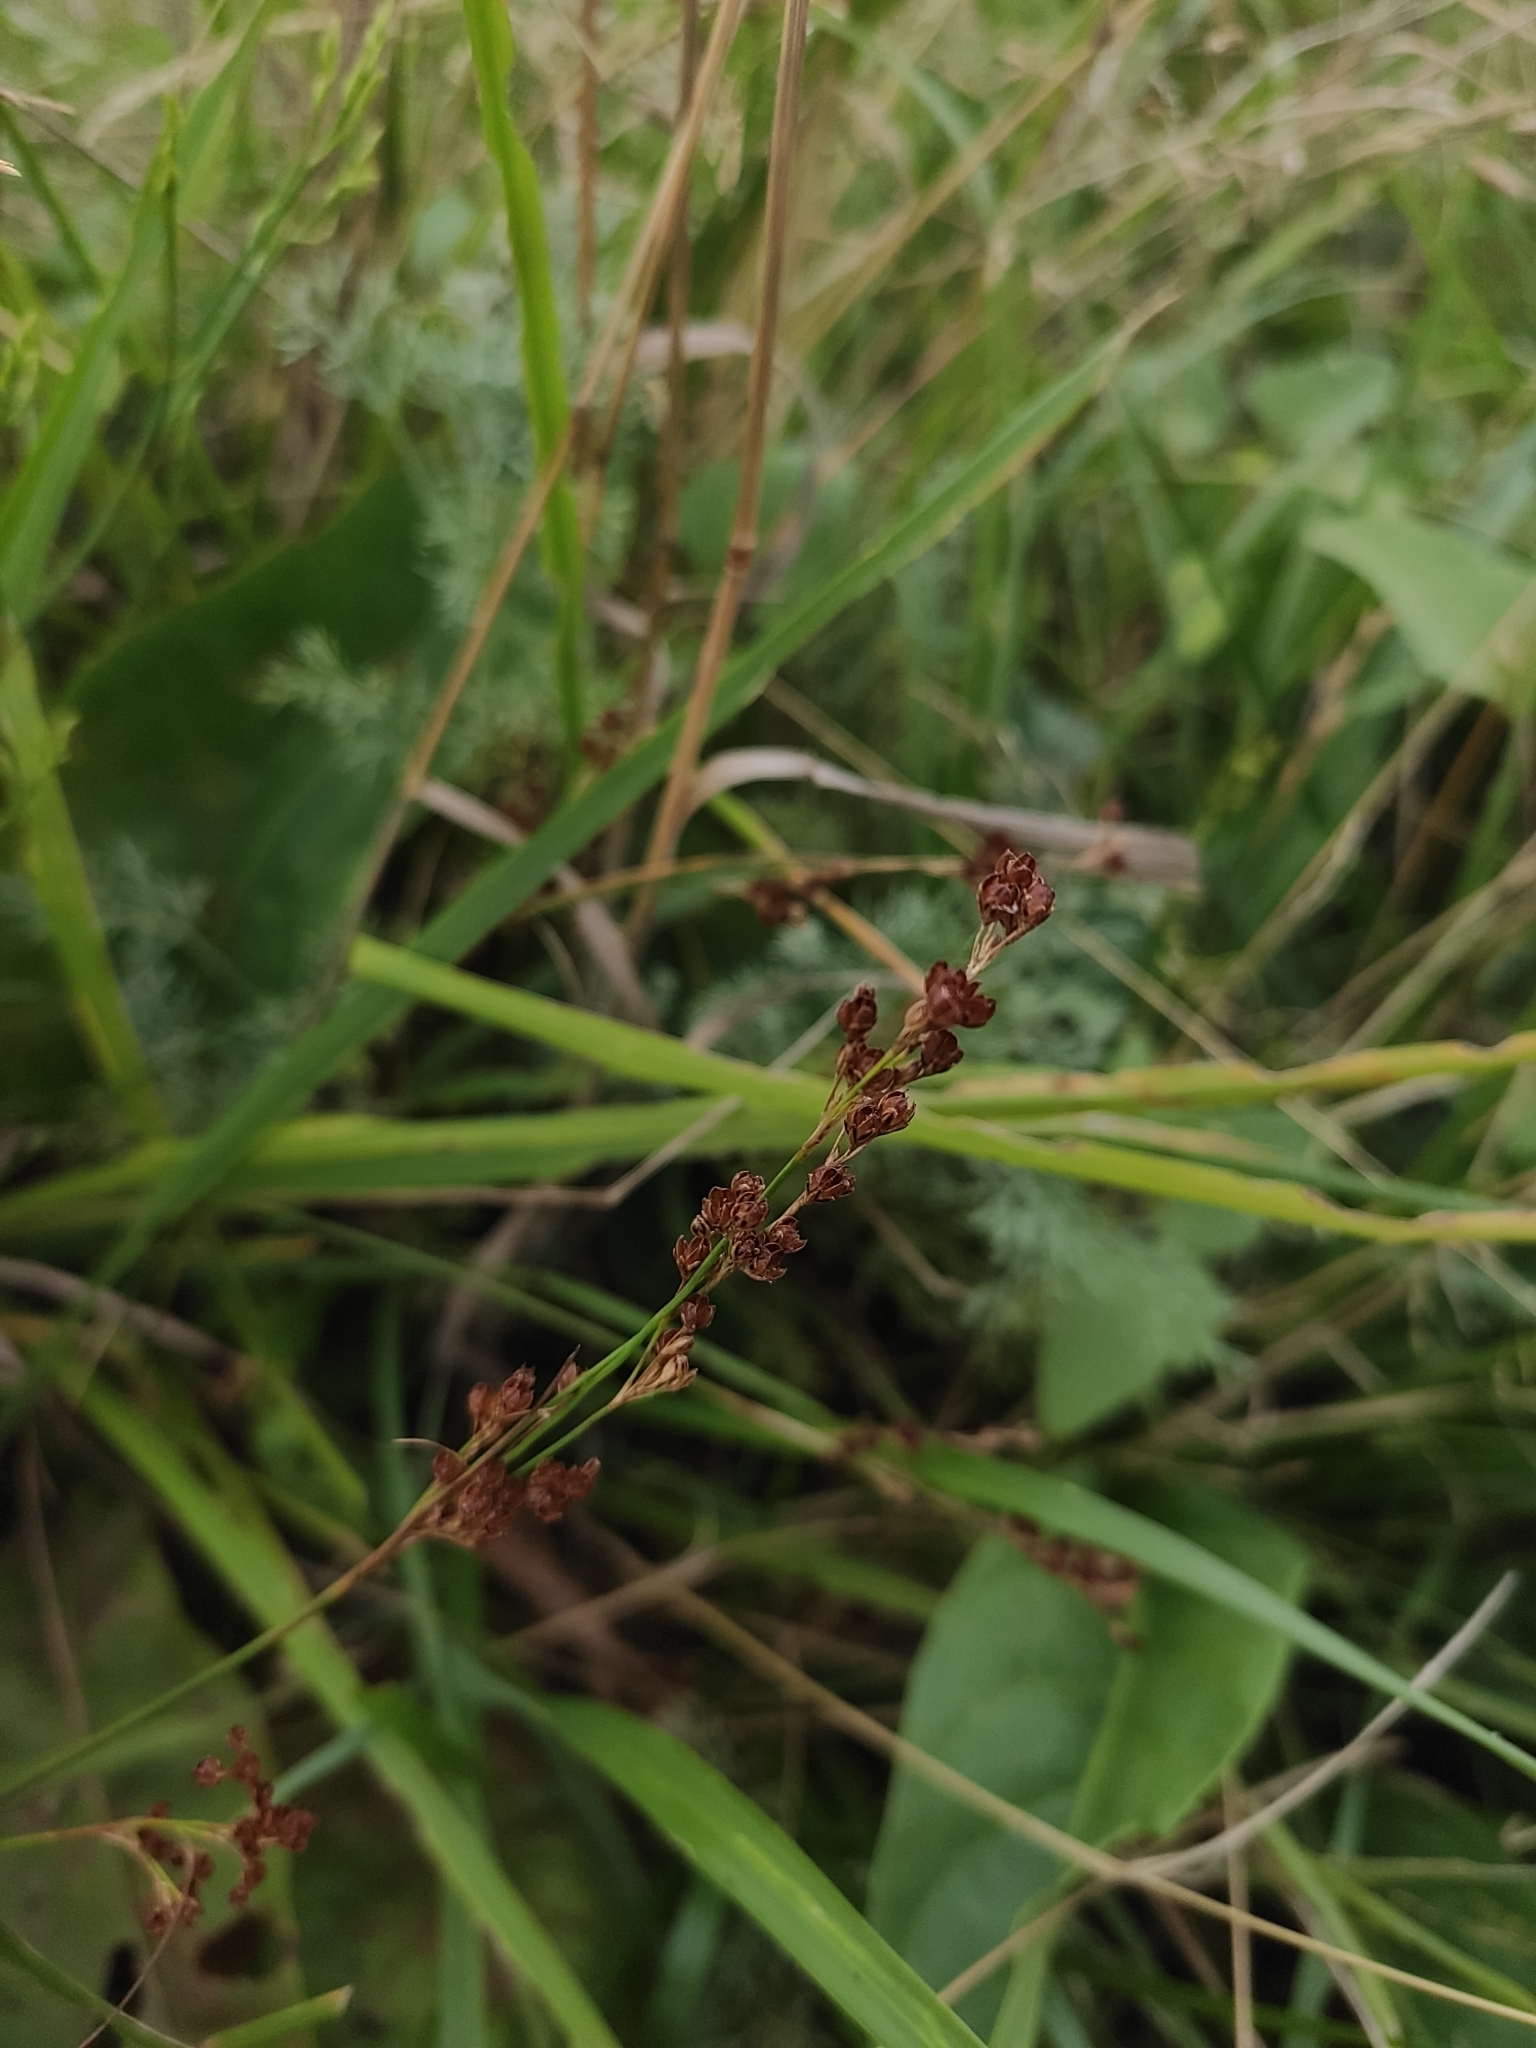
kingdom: Plantae
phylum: Tracheophyta
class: Liliopsida
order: Poales
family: Juncaceae
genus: Juncus
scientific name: Juncus compressus
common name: Round-fruited rush
